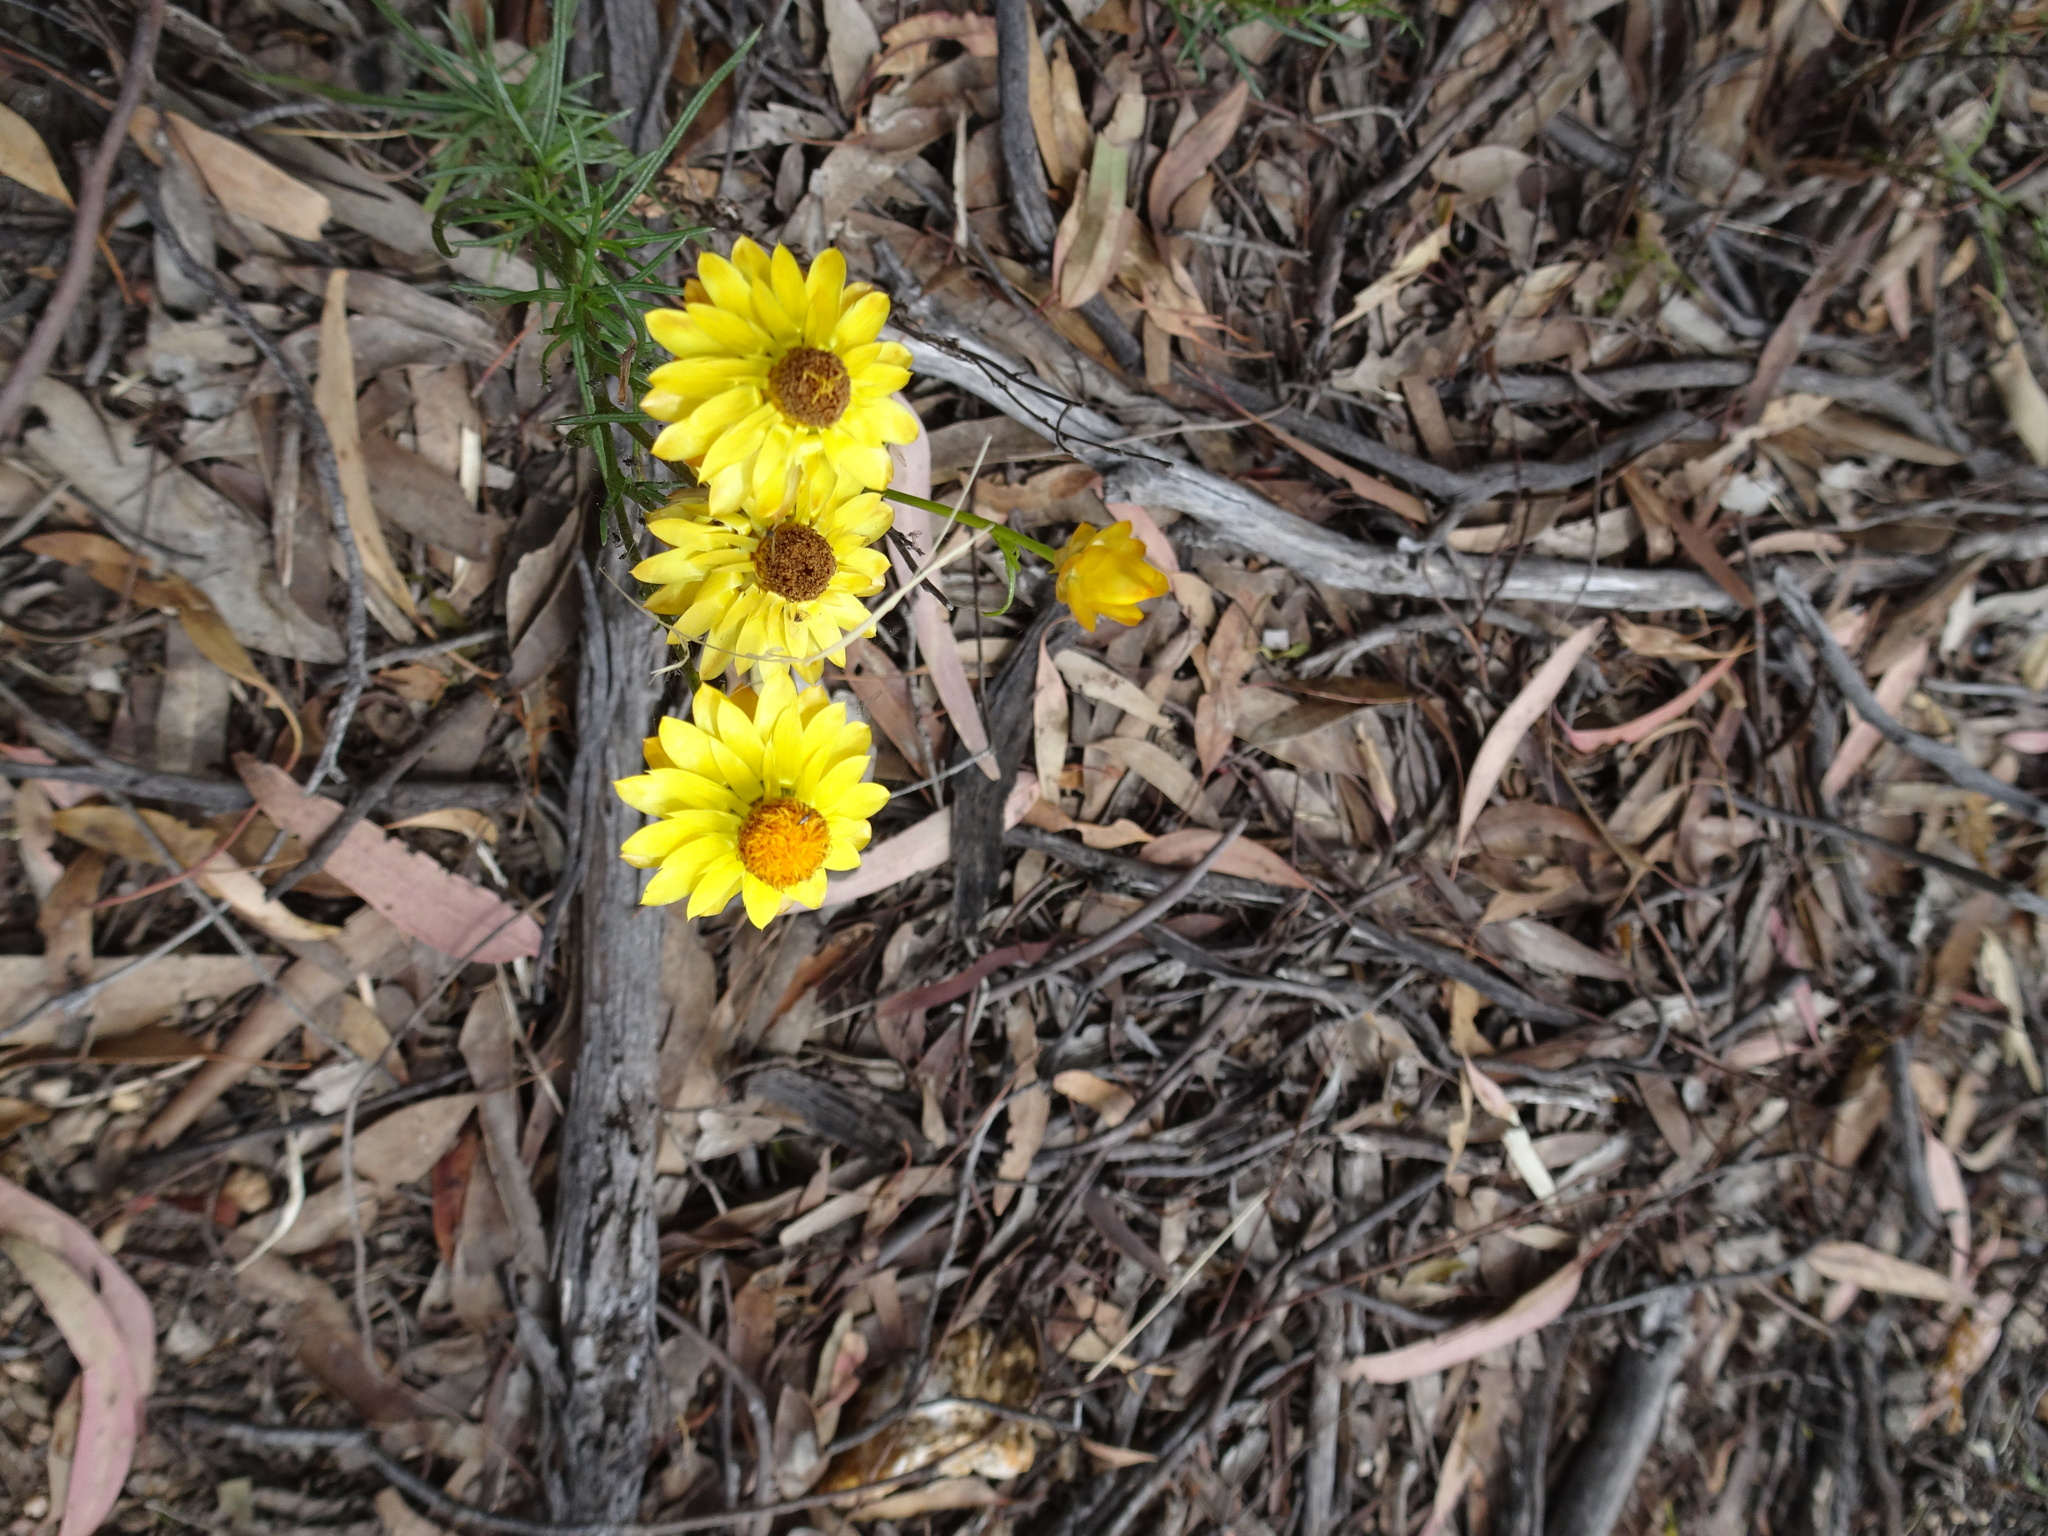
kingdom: Plantae
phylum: Tracheophyta
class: Magnoliopsida
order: Asterales
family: Asteraceae
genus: Xerochrysum
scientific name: Xerochrysum viscosum
